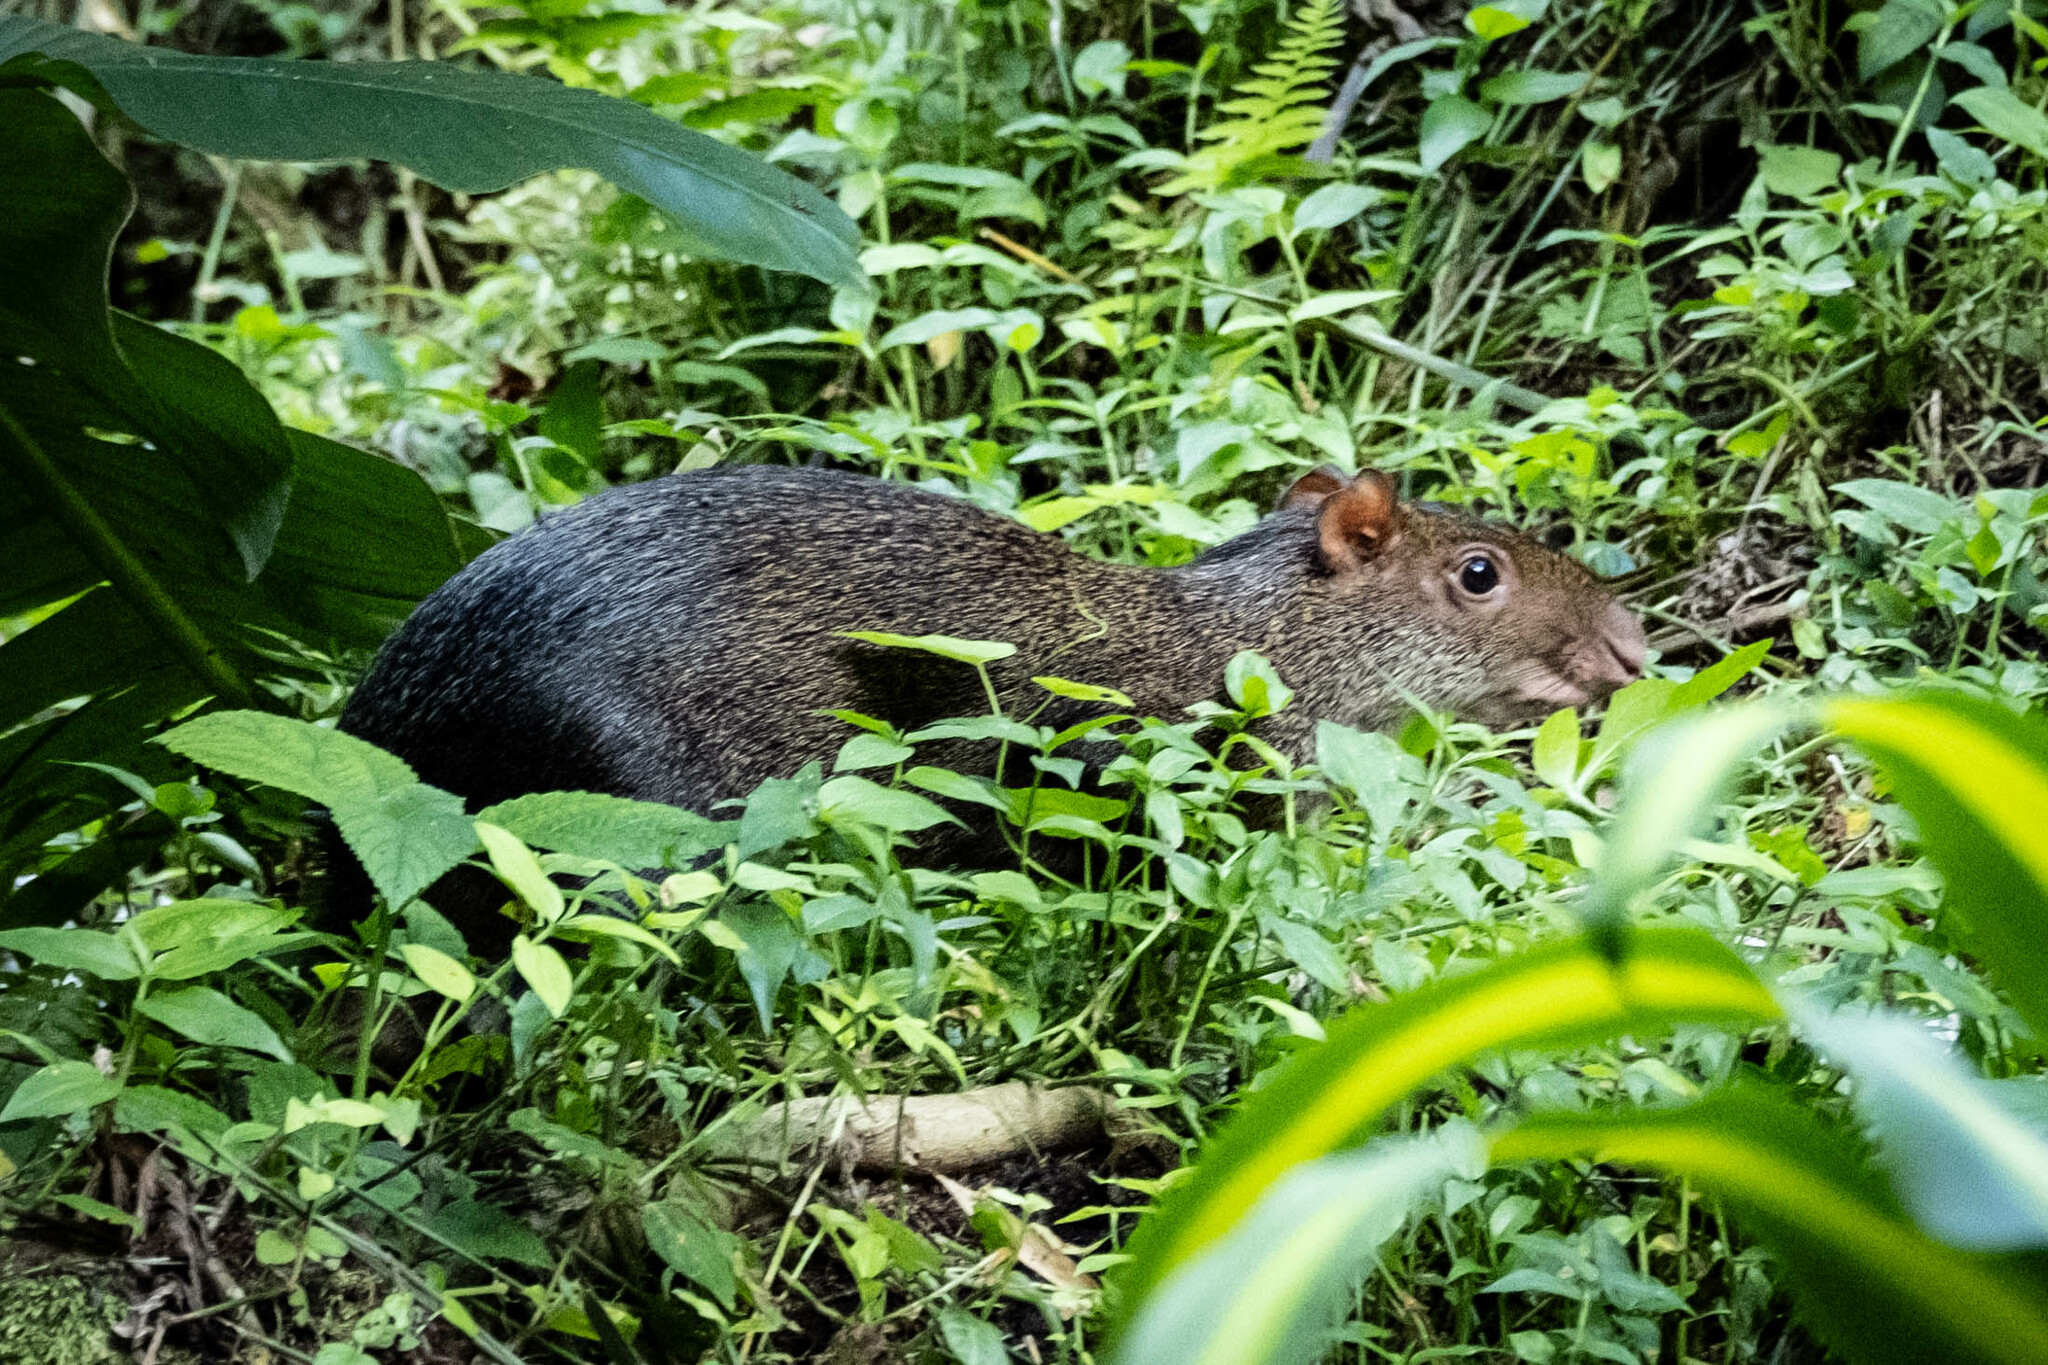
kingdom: Animalia
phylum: Chordata
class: Mammalia
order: Rodentia
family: Dasyproctidae
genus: Dasyprocta
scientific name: Dasyprocta punctata
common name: Central american agouti
